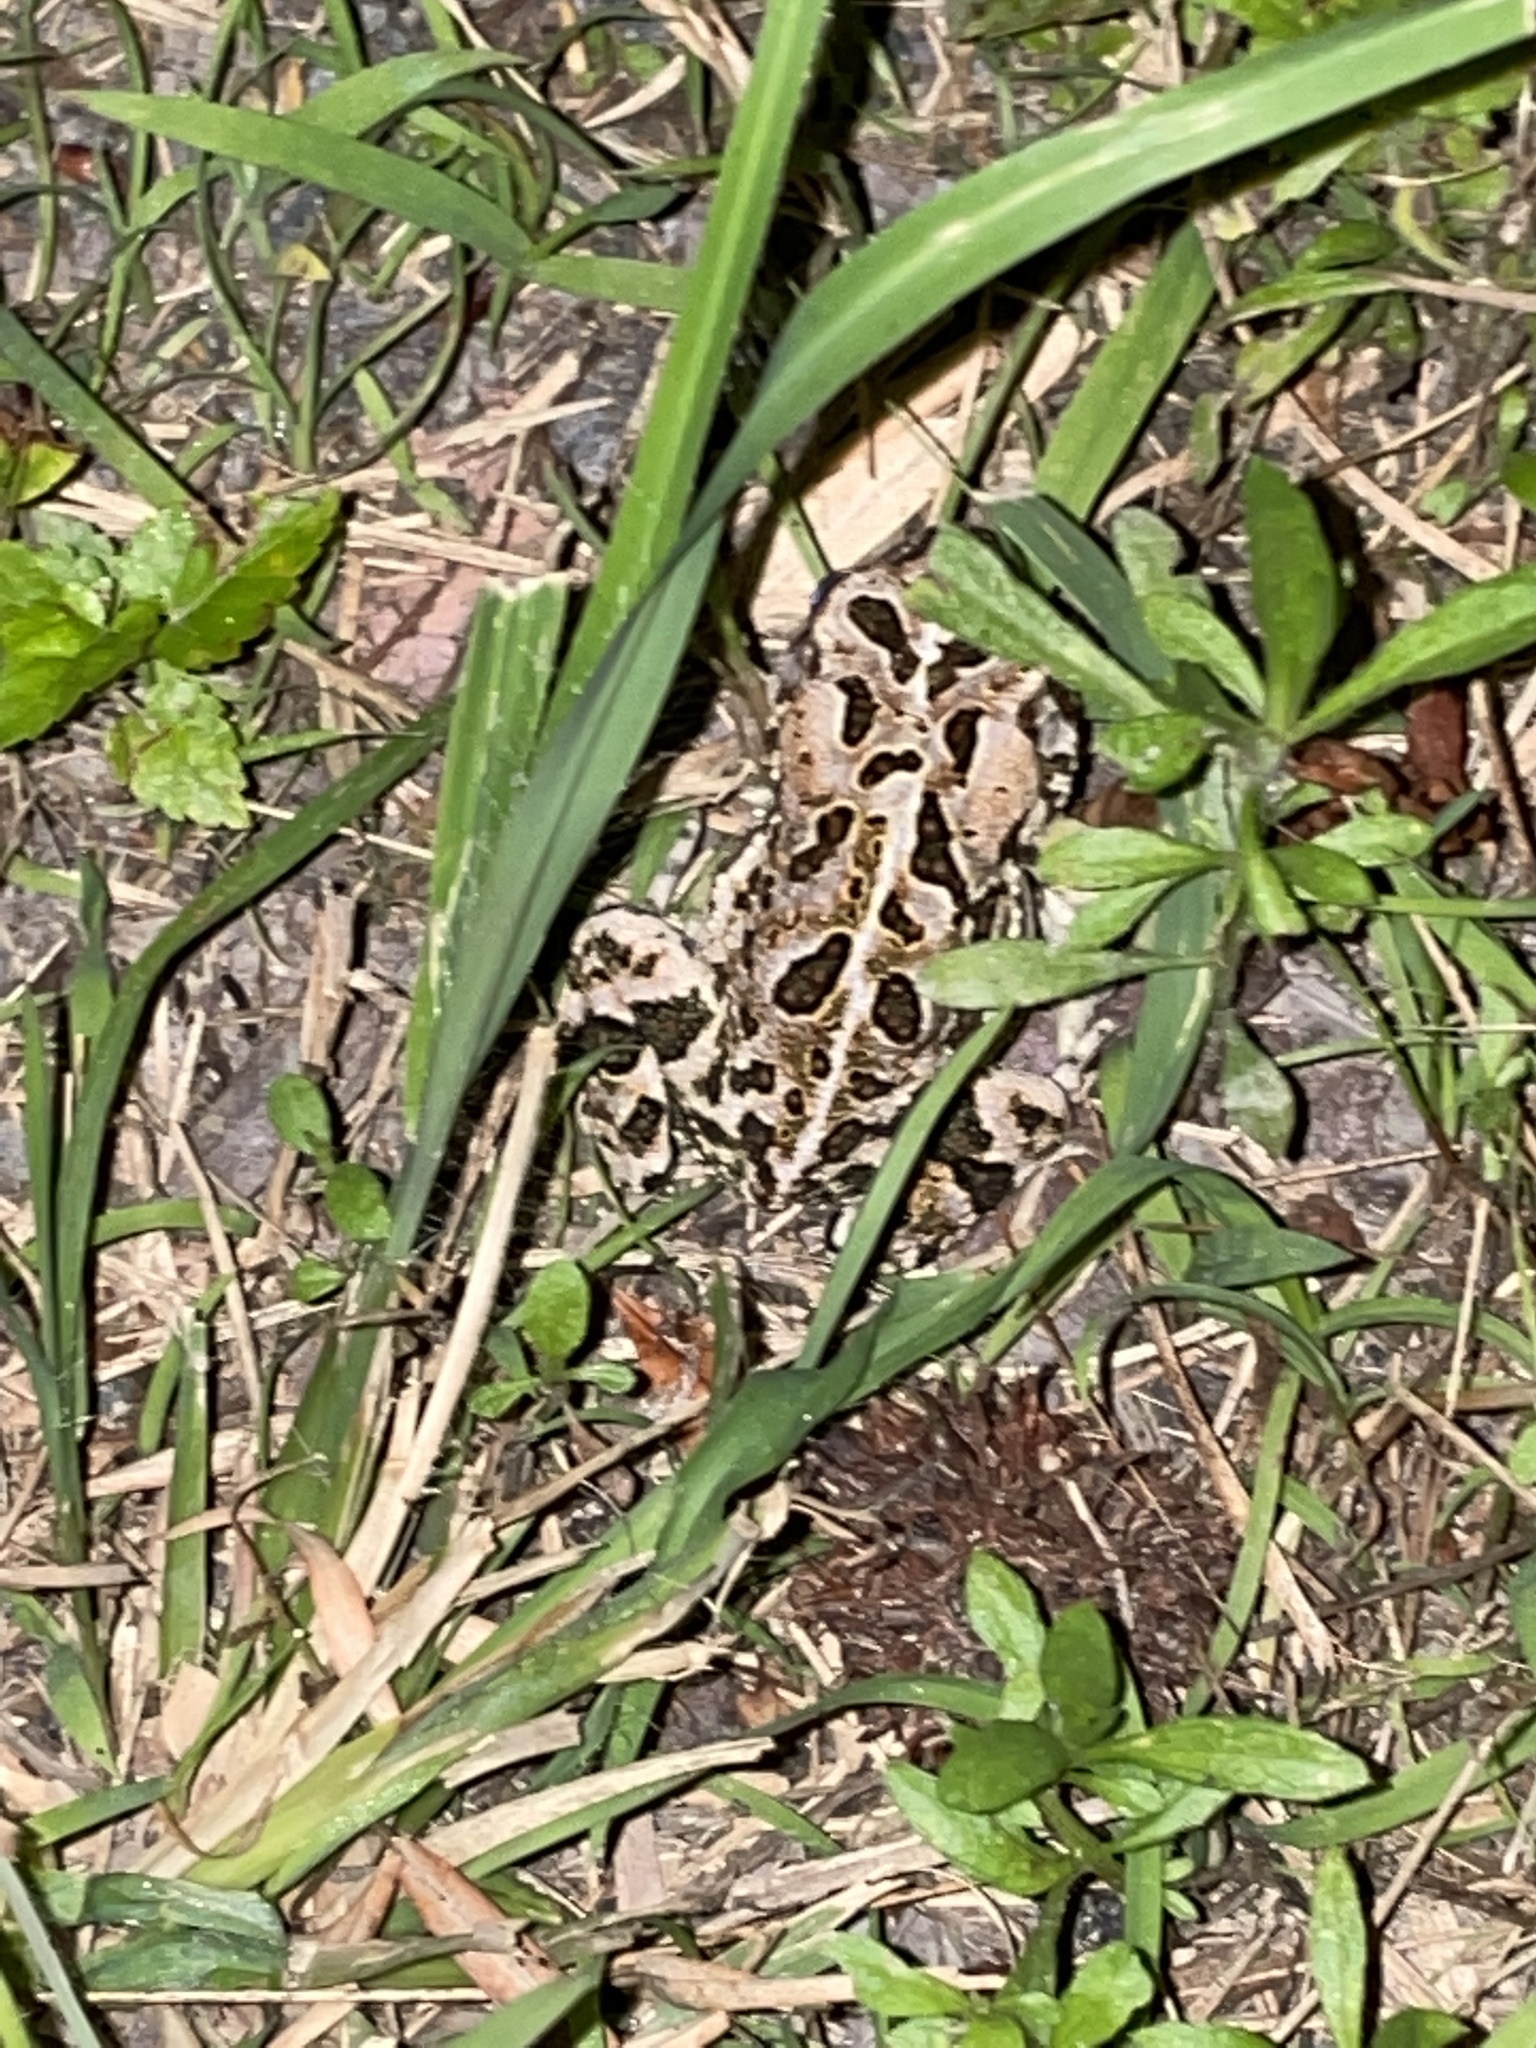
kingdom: Animalia
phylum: Chordata
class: Amphibia
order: Anura
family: Bufonidae
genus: Anaxyrus
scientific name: Anaxyrus fowleri
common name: Fowler's toad
